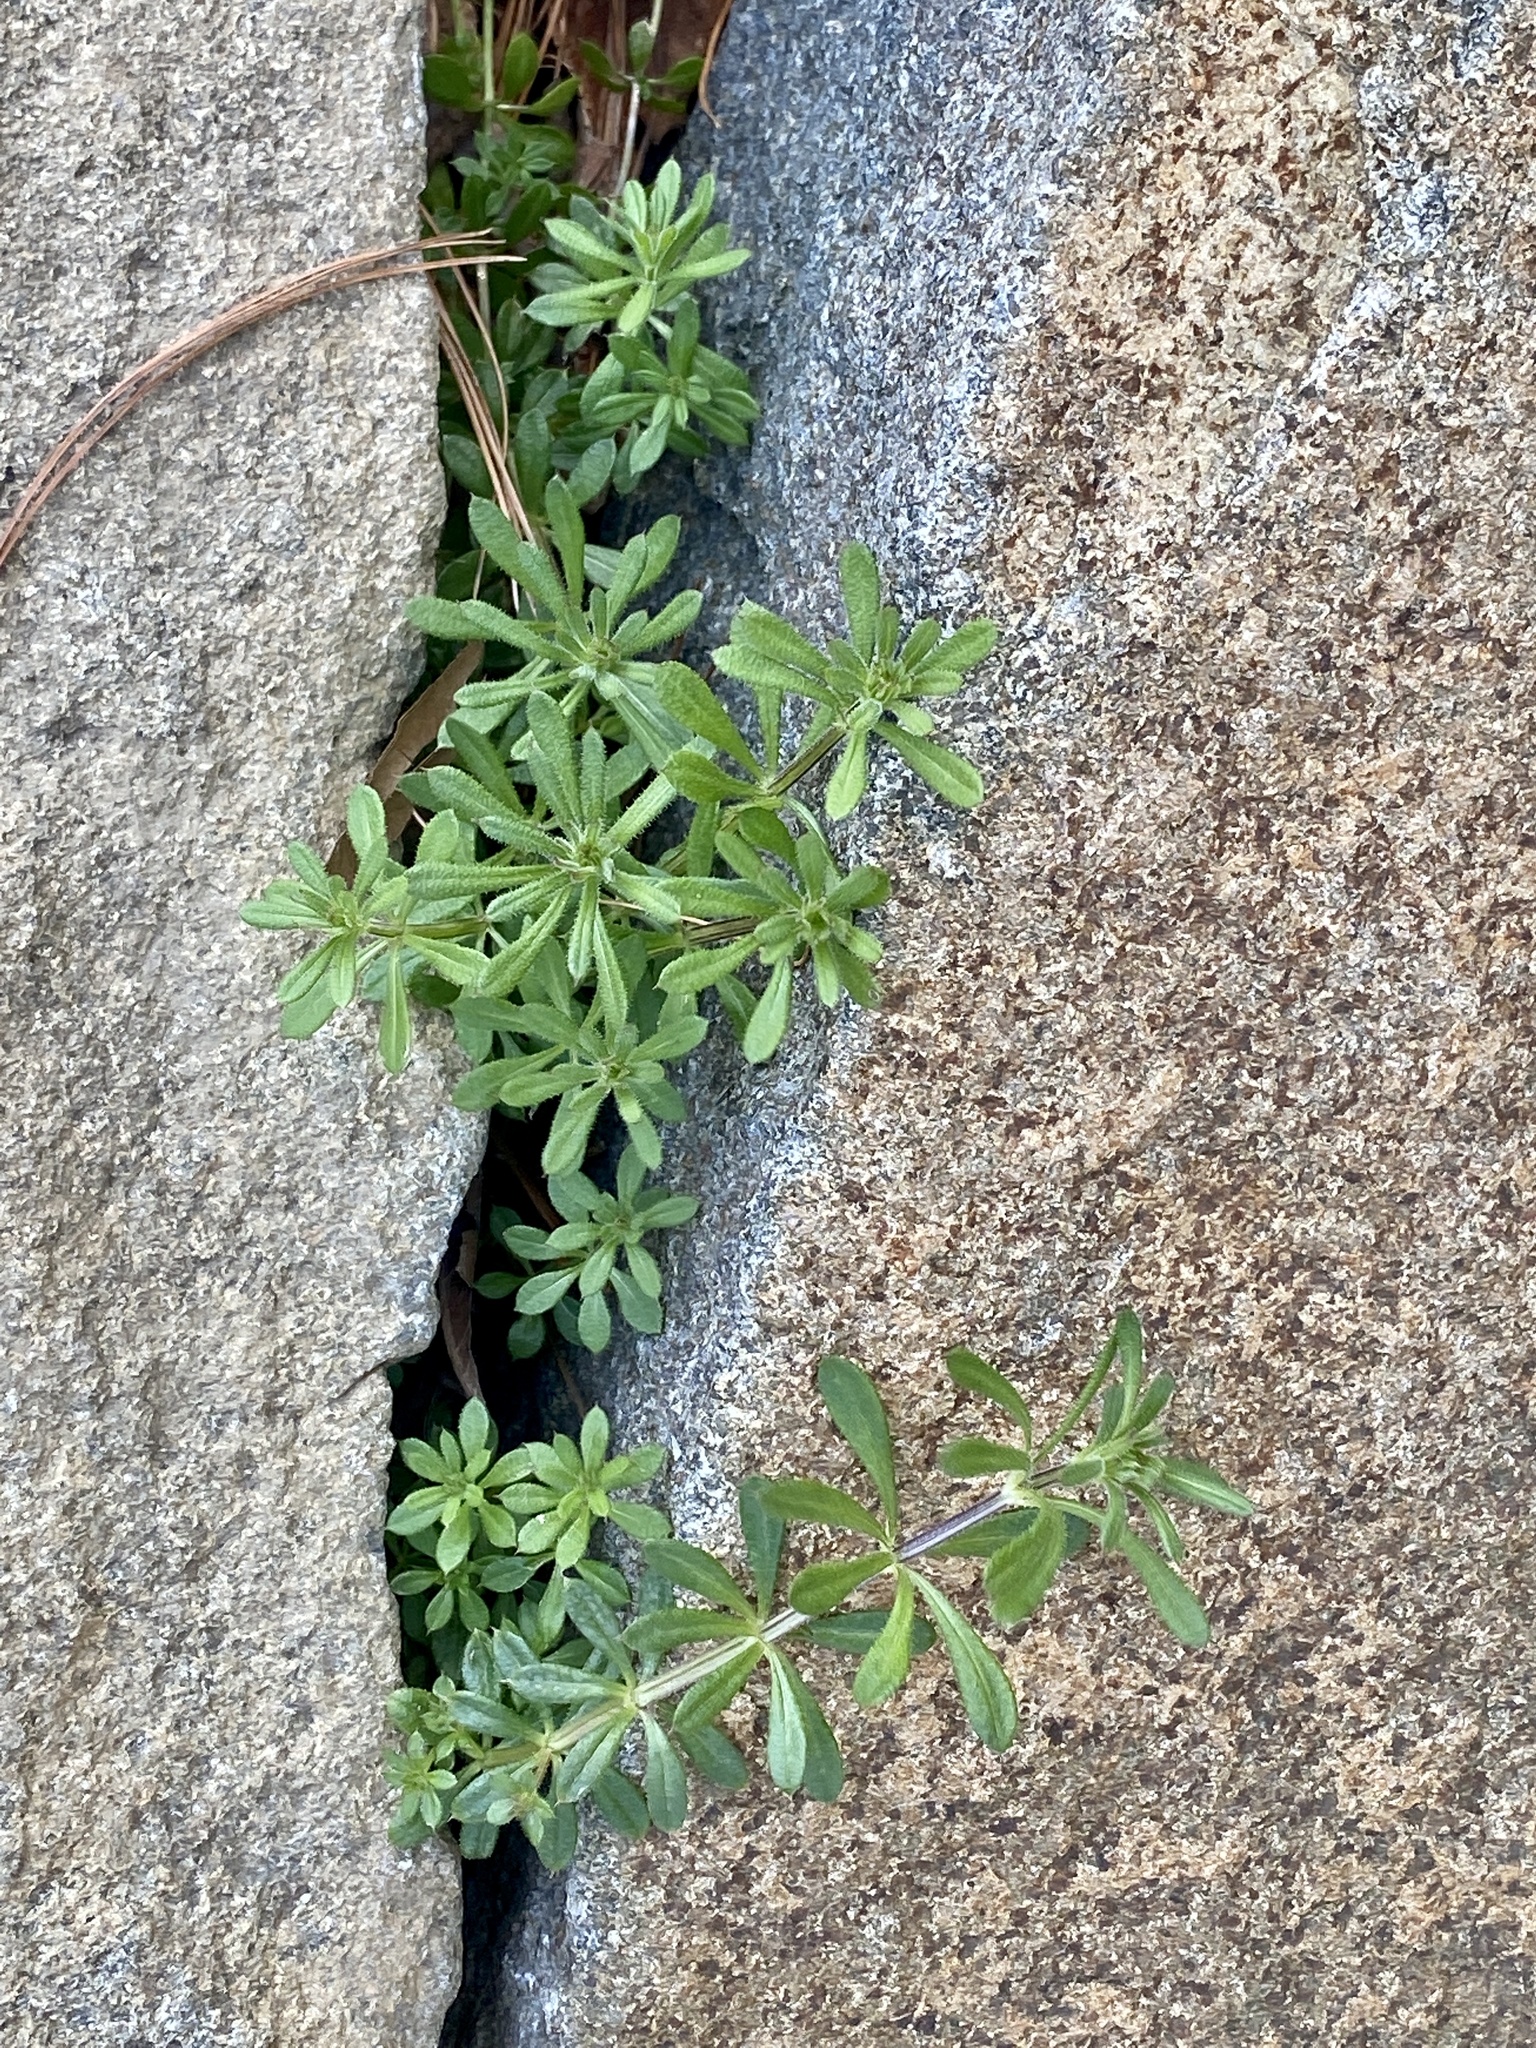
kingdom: Plantae
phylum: Tracheophyta
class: Magnoliopsida
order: Gentianales
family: Rubiaceae
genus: Galium
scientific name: Galium aparine
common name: Cleavers
